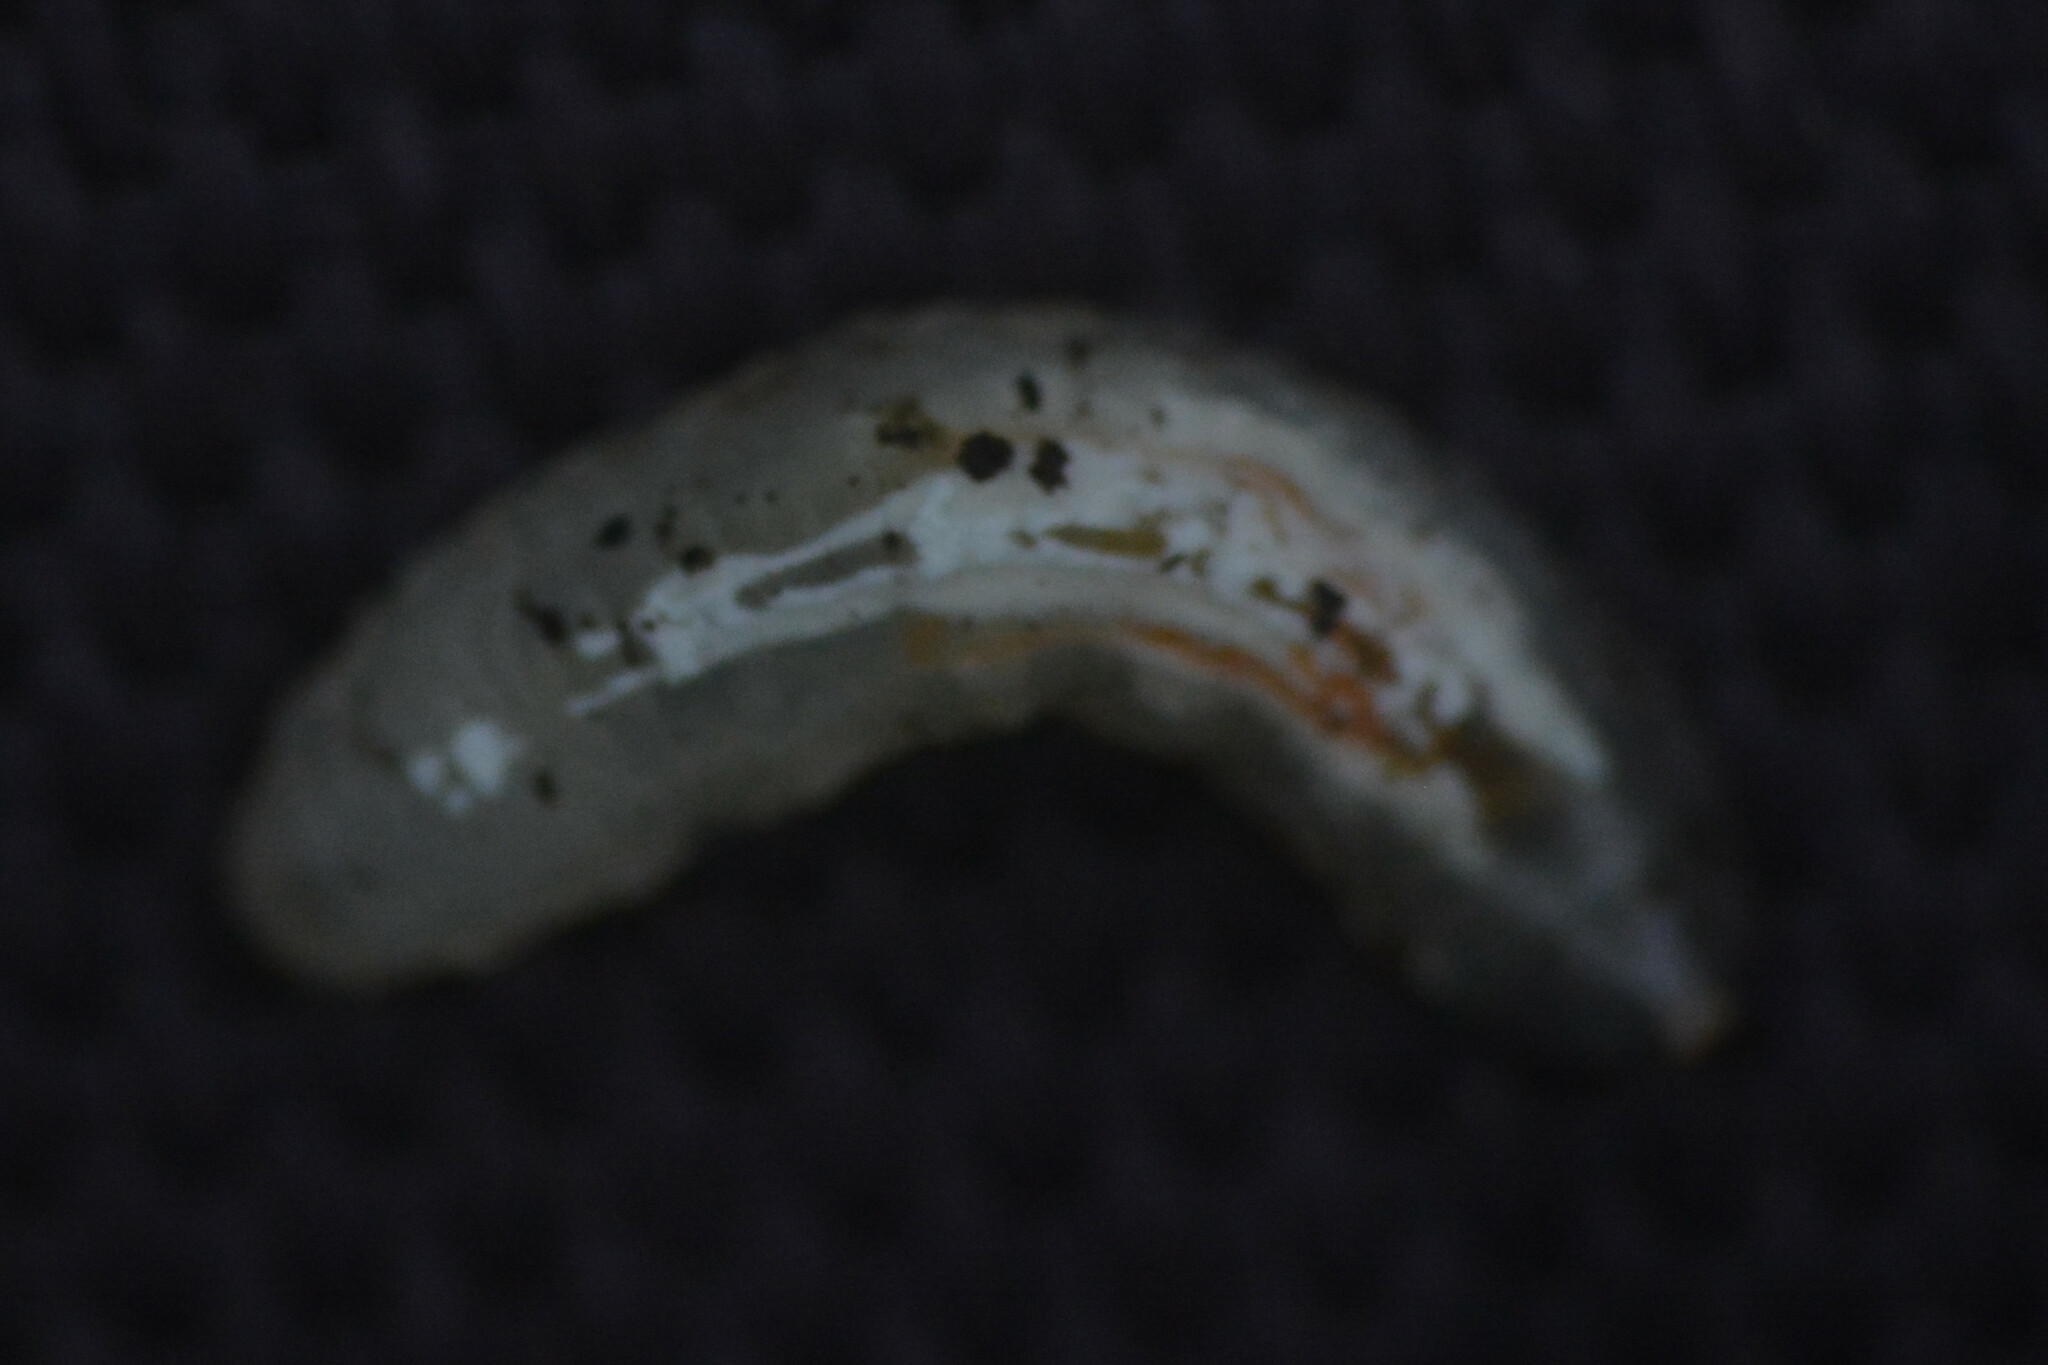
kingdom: Animalia
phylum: Arthropoda
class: Insecta
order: Diptera
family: Syrphidae
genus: Episyrphus
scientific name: Episyrphus balteatus
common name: Marmalade hoverfly
